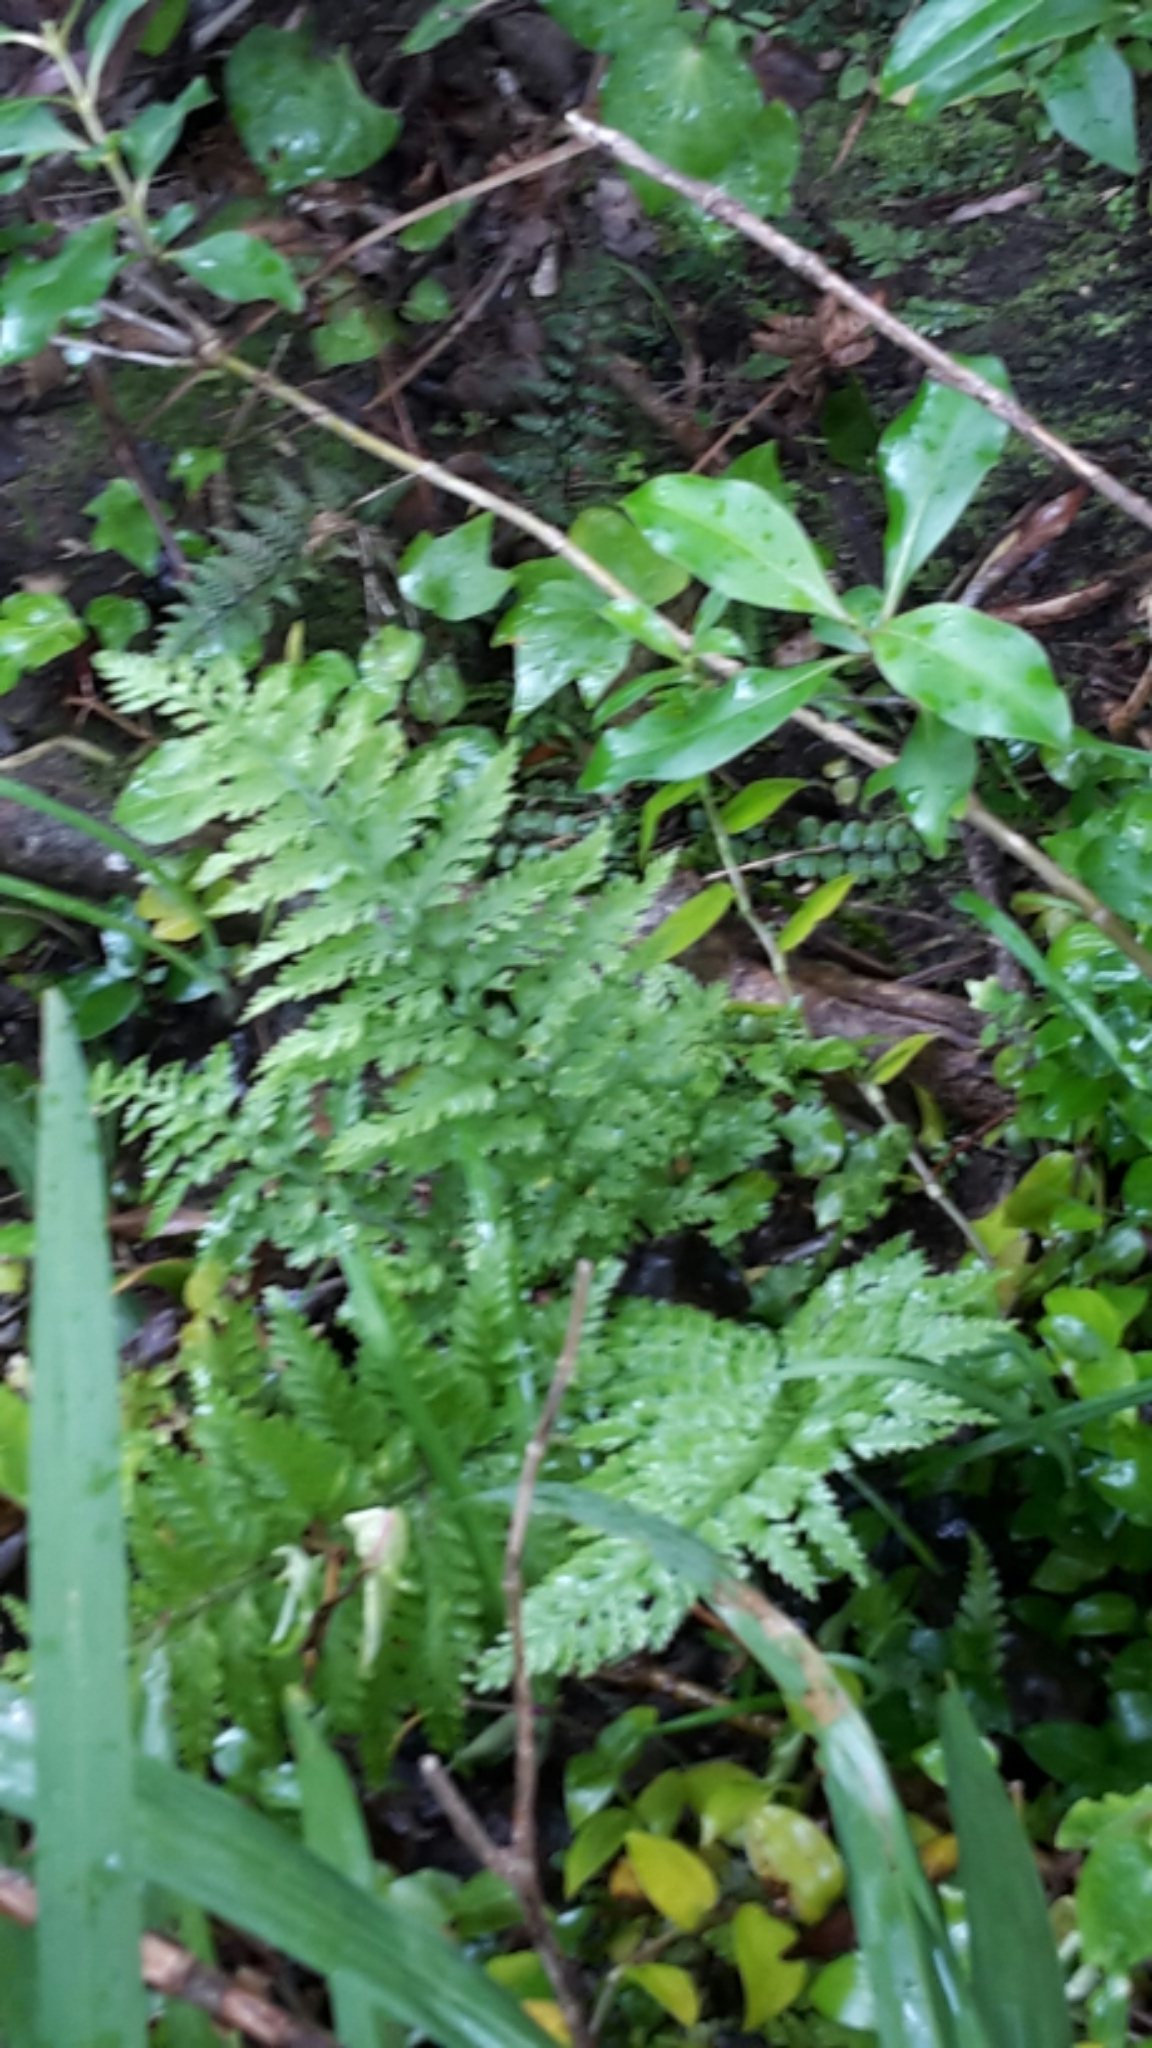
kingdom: Plantae
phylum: Tracheophyta
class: Polypodiopsida
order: Polypodiales
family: Aspleniaceae
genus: Asplenium
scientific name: Asplenium
